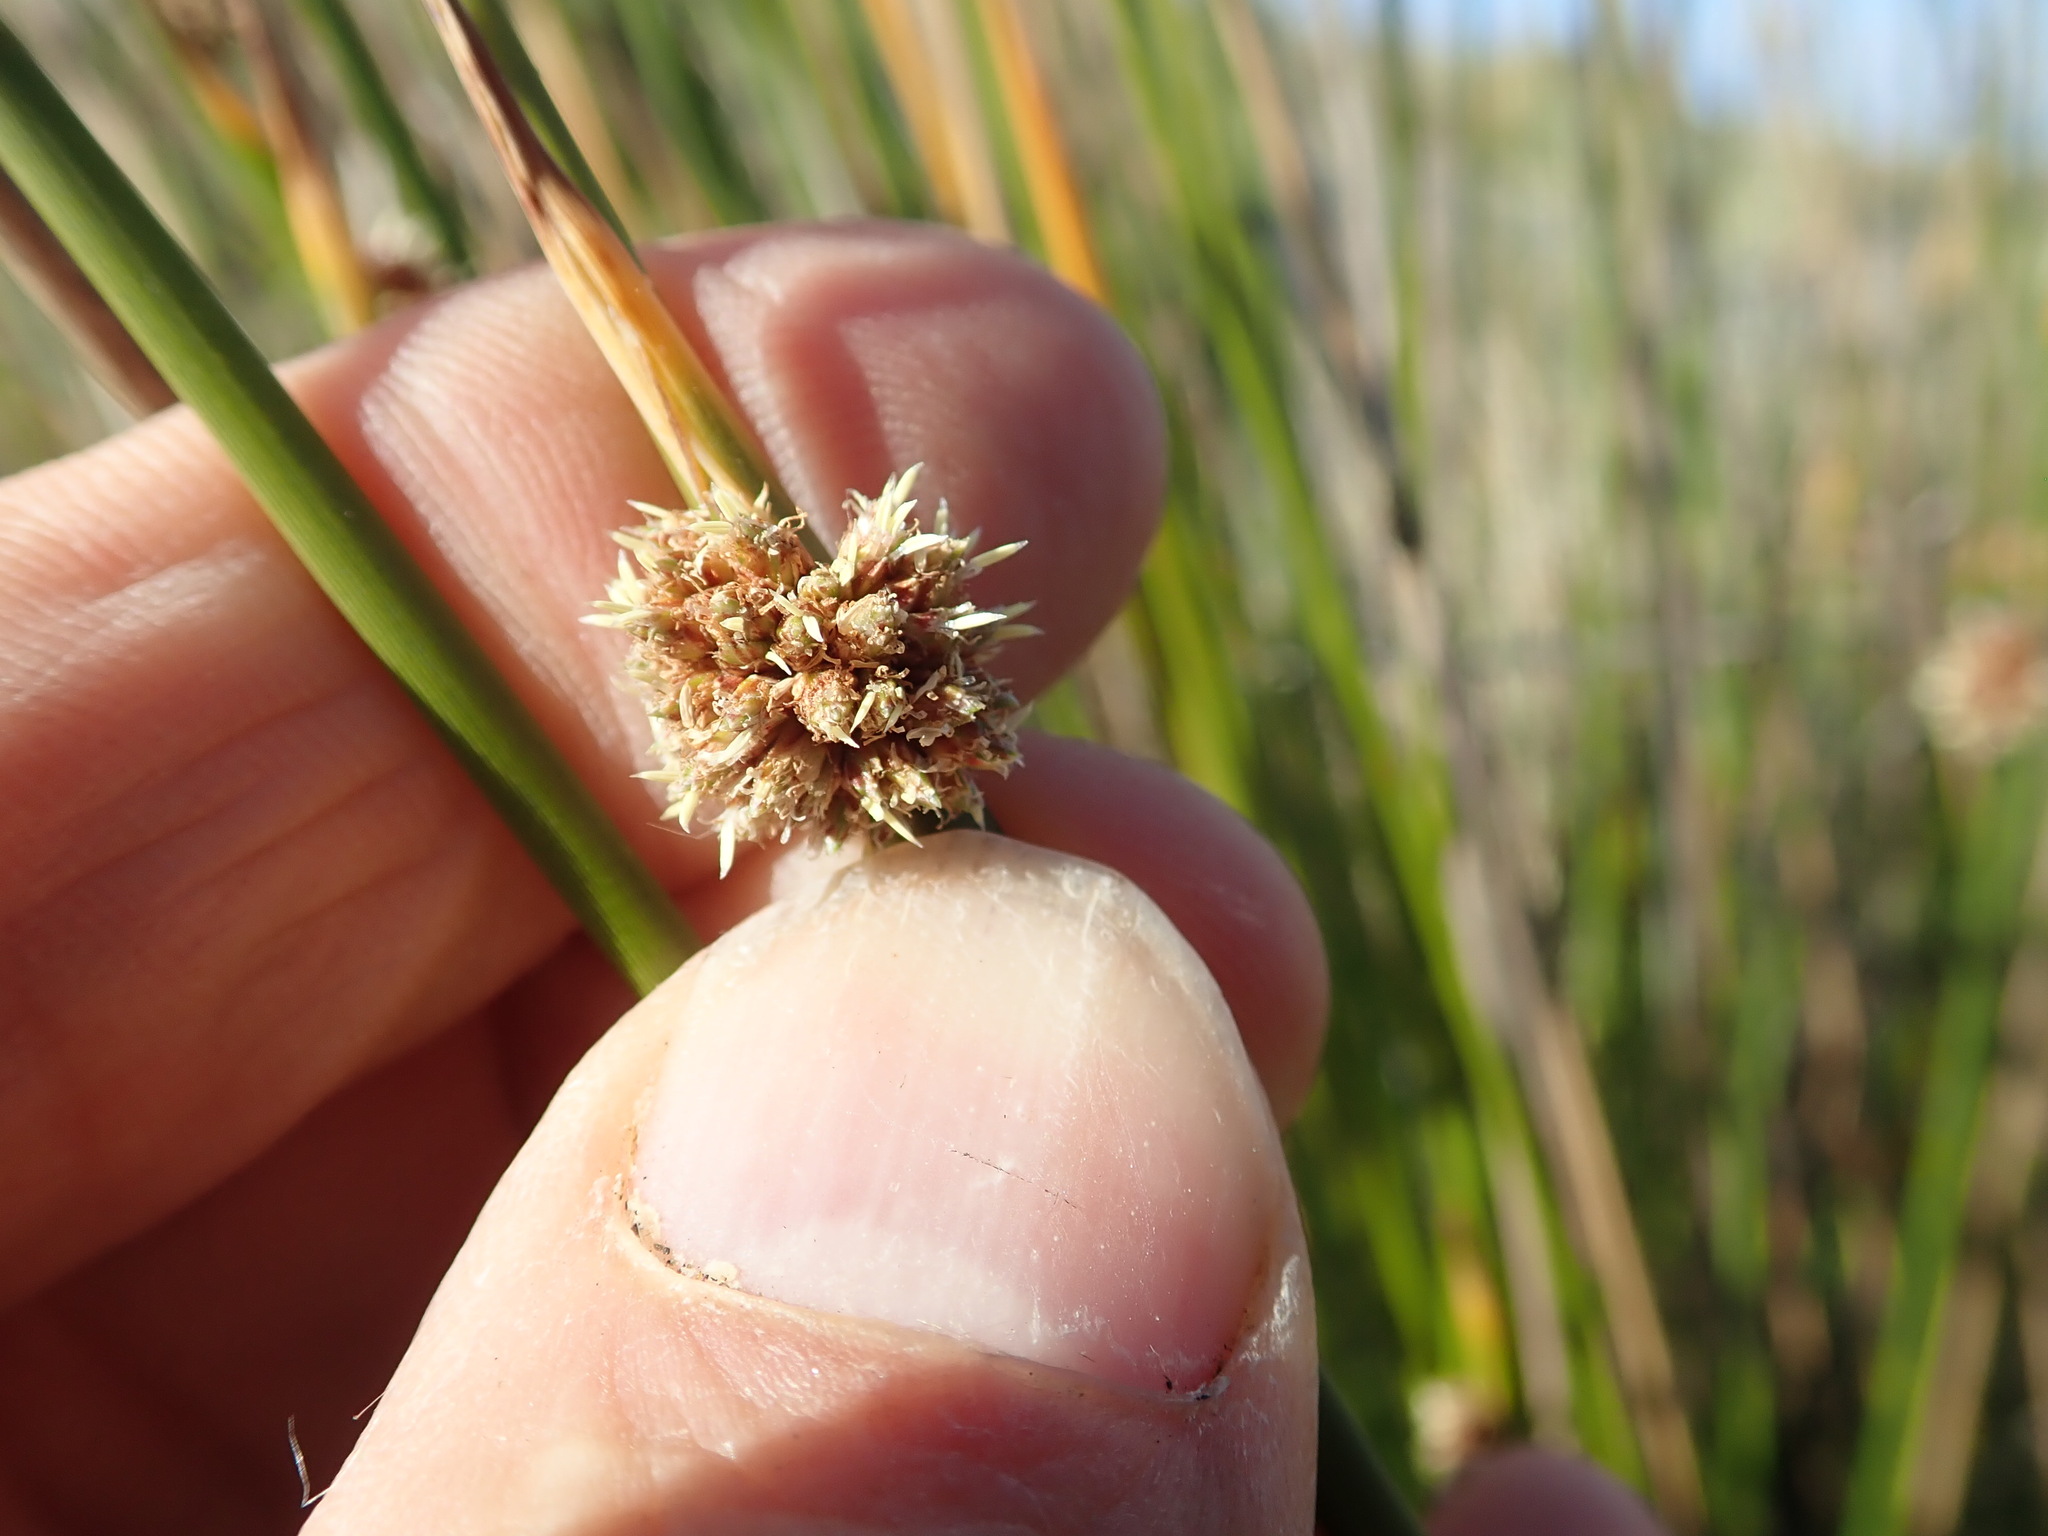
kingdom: Plantae
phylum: Tracheophyta
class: Liliopsida
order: Poales
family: Cyperaceae
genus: Ficinia
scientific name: Ficinia nodosa
